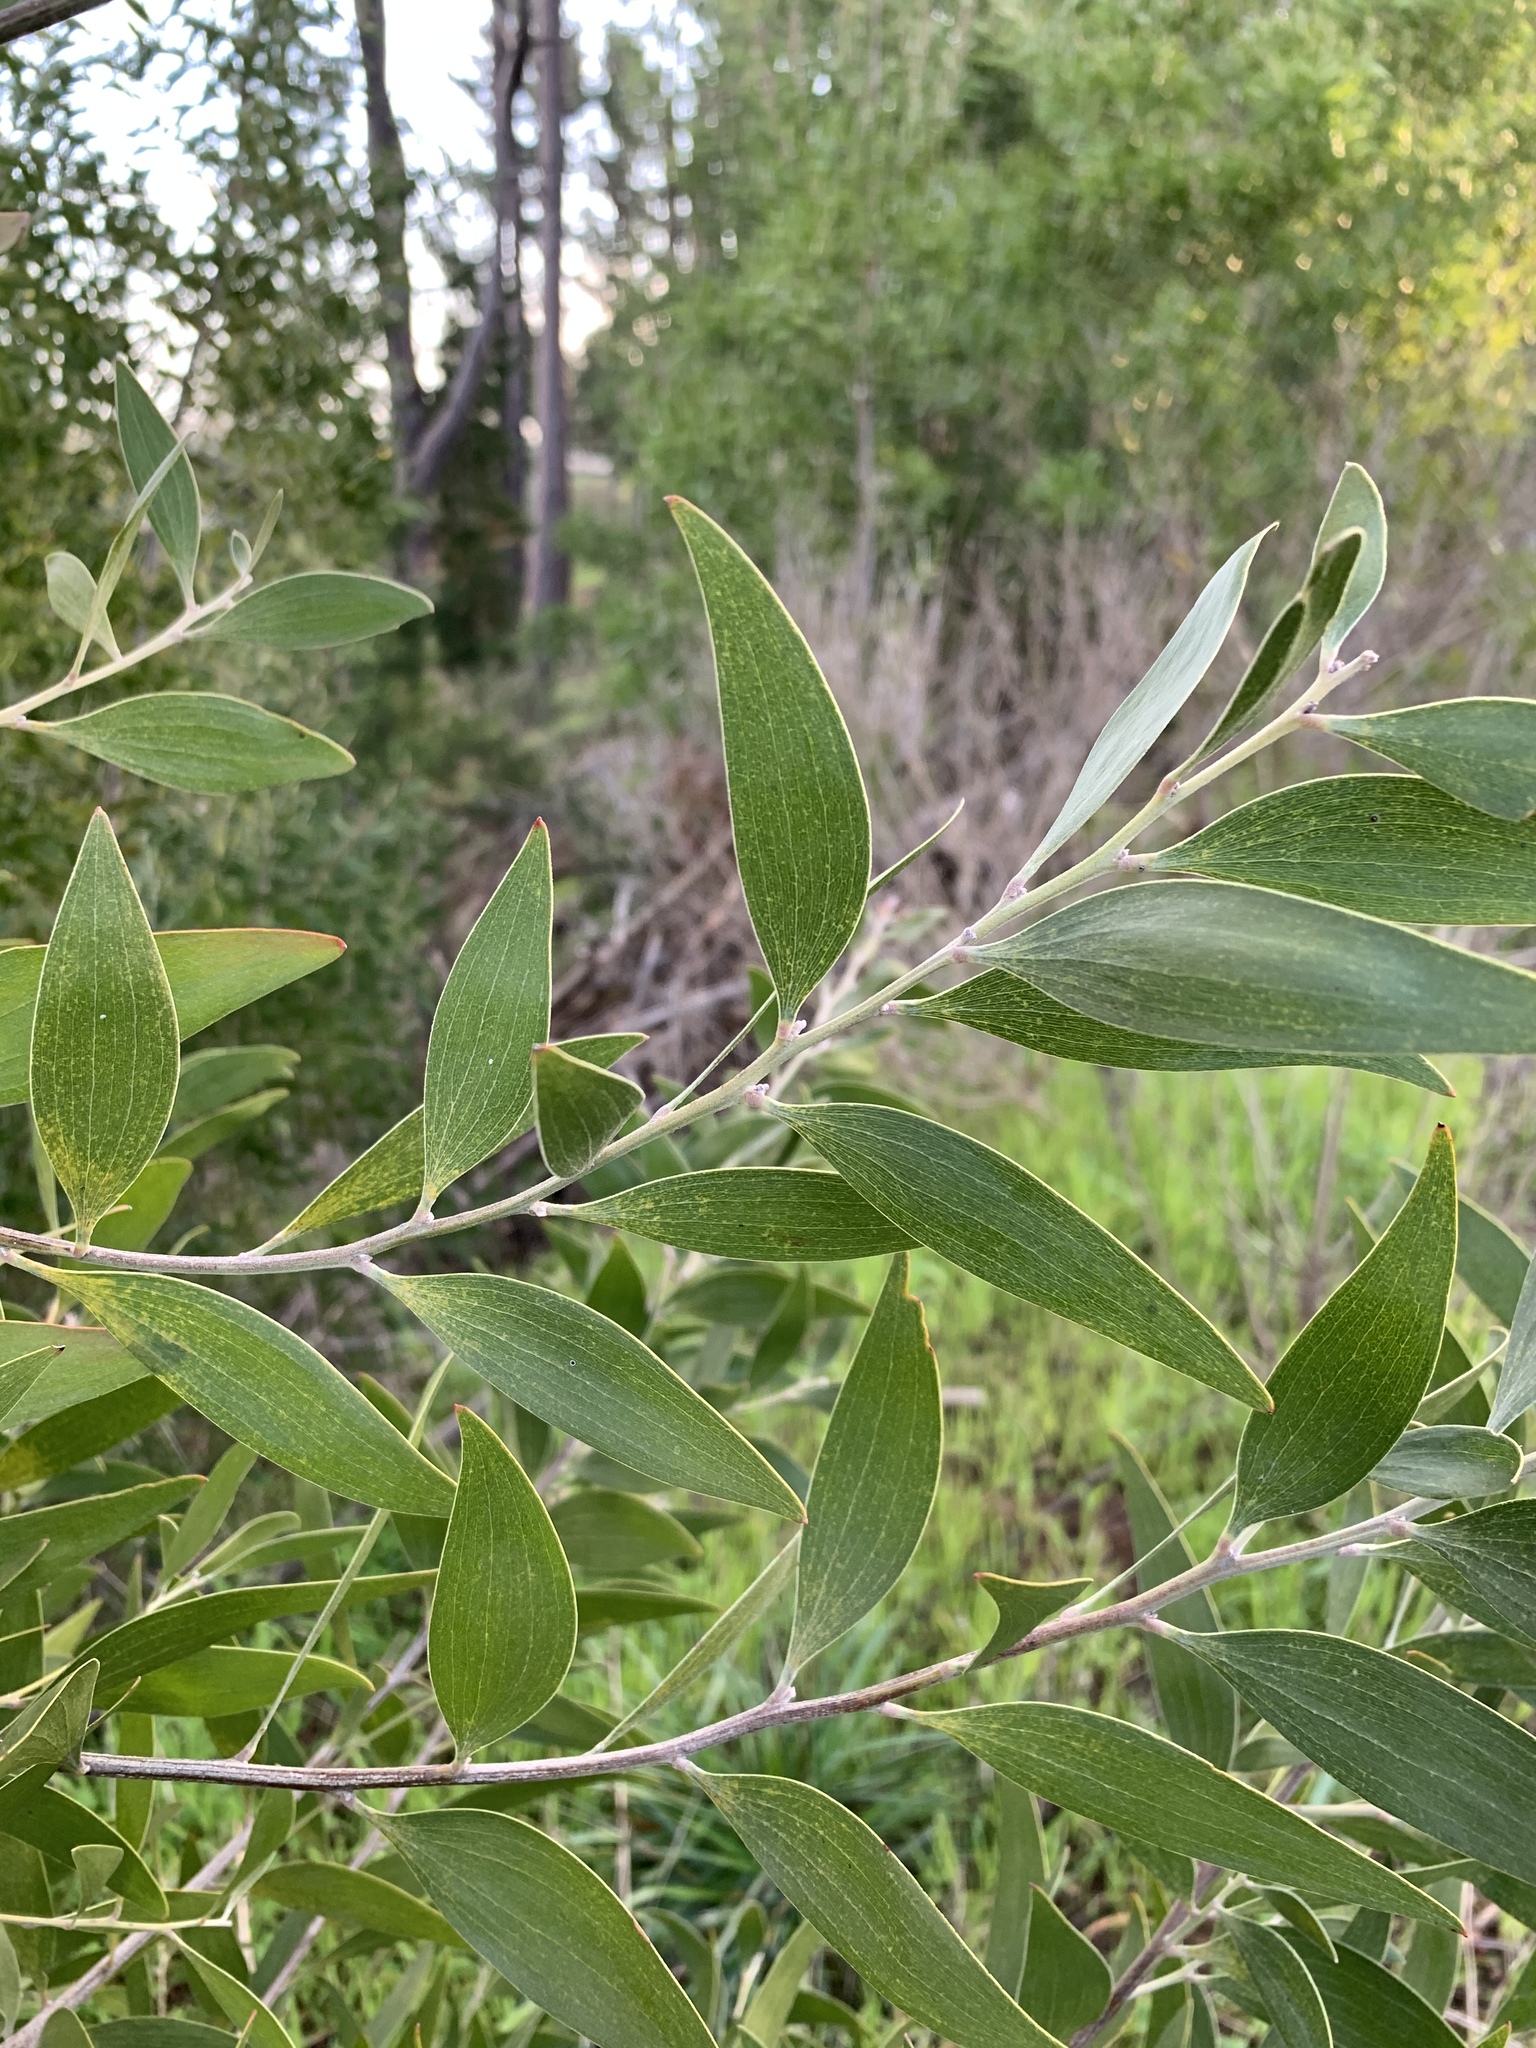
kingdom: Plantae
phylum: Tracheophyta
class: Magnoliopsida
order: Fabales
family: Fabaceae
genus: Acacia
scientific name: Acacia melanoxylon
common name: Blackwood
